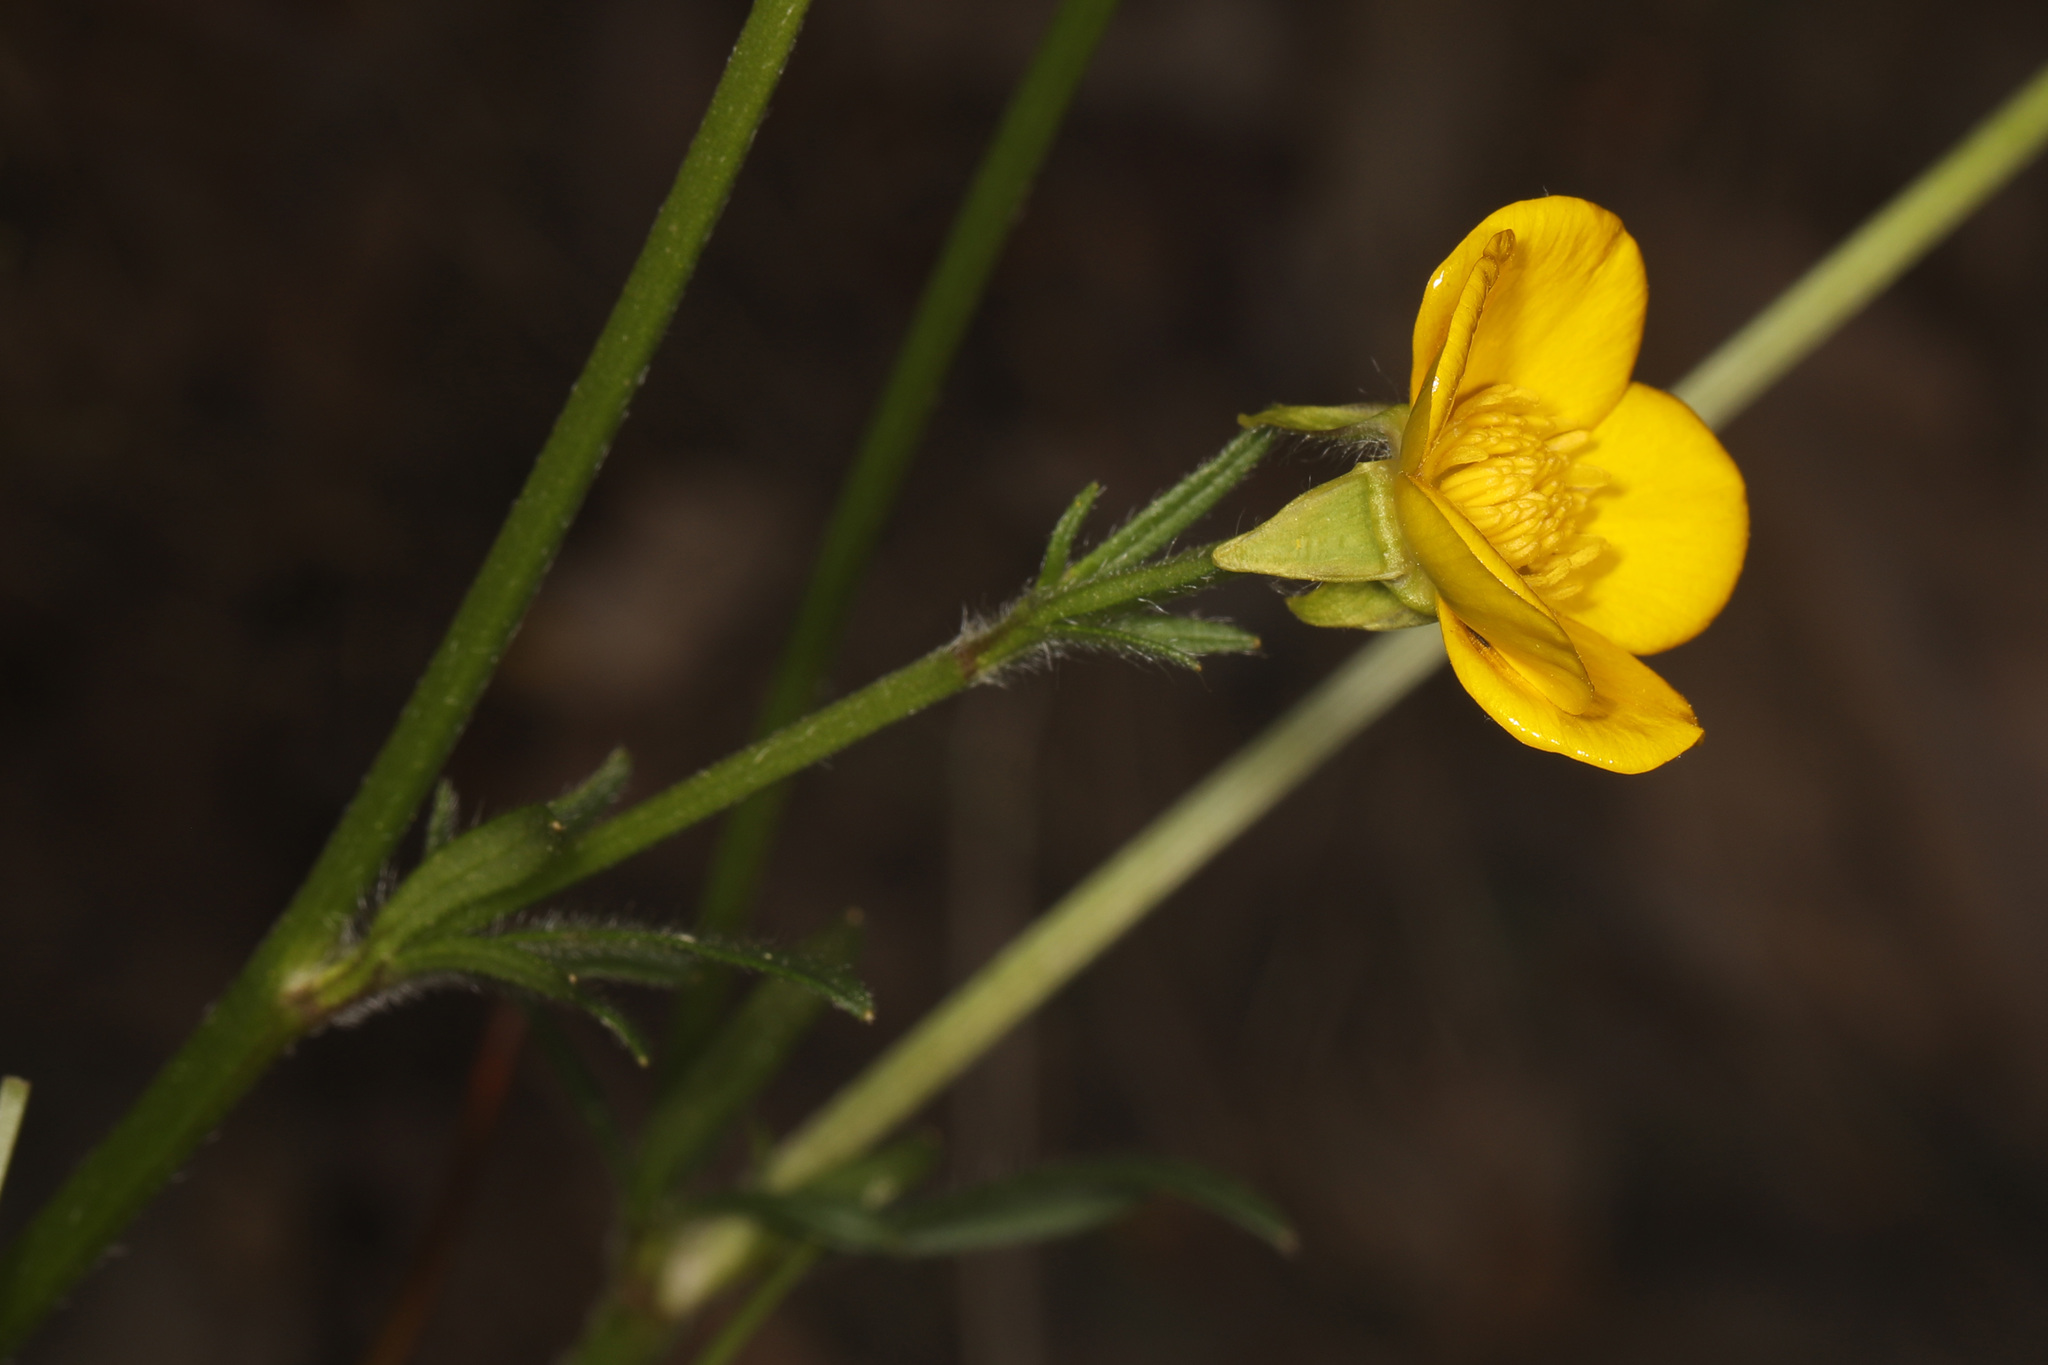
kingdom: Plantae
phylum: Tracheophyta
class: Magnoliopsida
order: Ranunculales
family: Ranunculaceae
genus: Ranunculus
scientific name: Ranunculus bulbosus
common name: Bulbous buttercup
